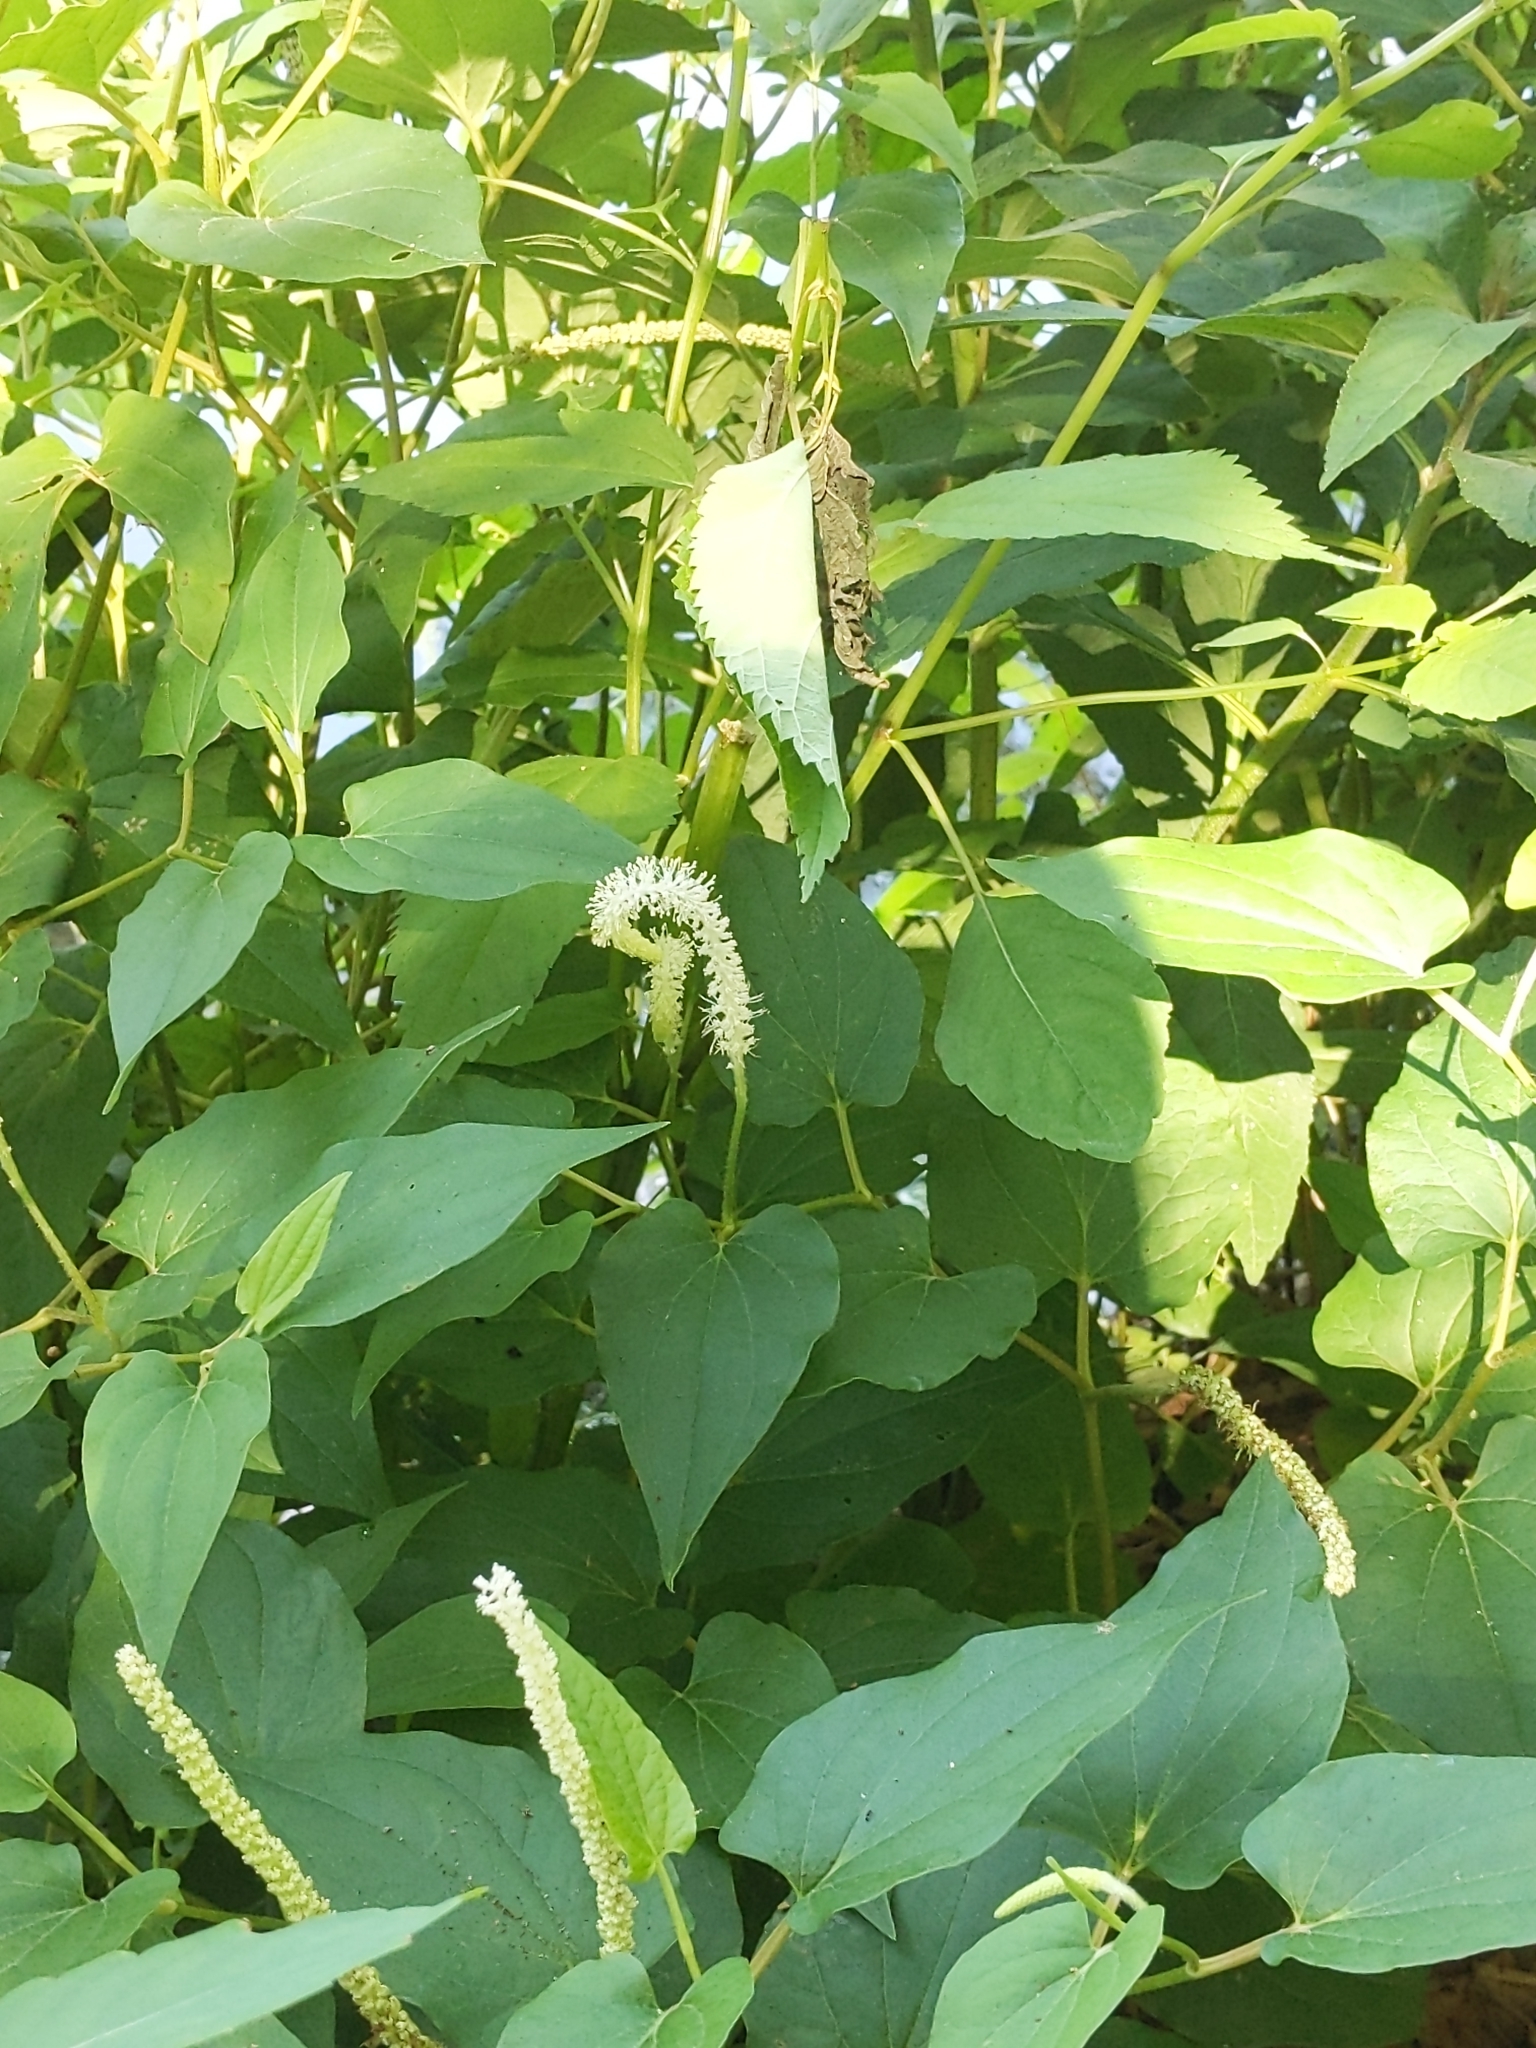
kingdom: Plantae
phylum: Tracheophyta
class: Magnoliopsida
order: Piperales
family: Saururaceae
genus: Saururus
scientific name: Saururus cernuus
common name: Lizard's-tail
